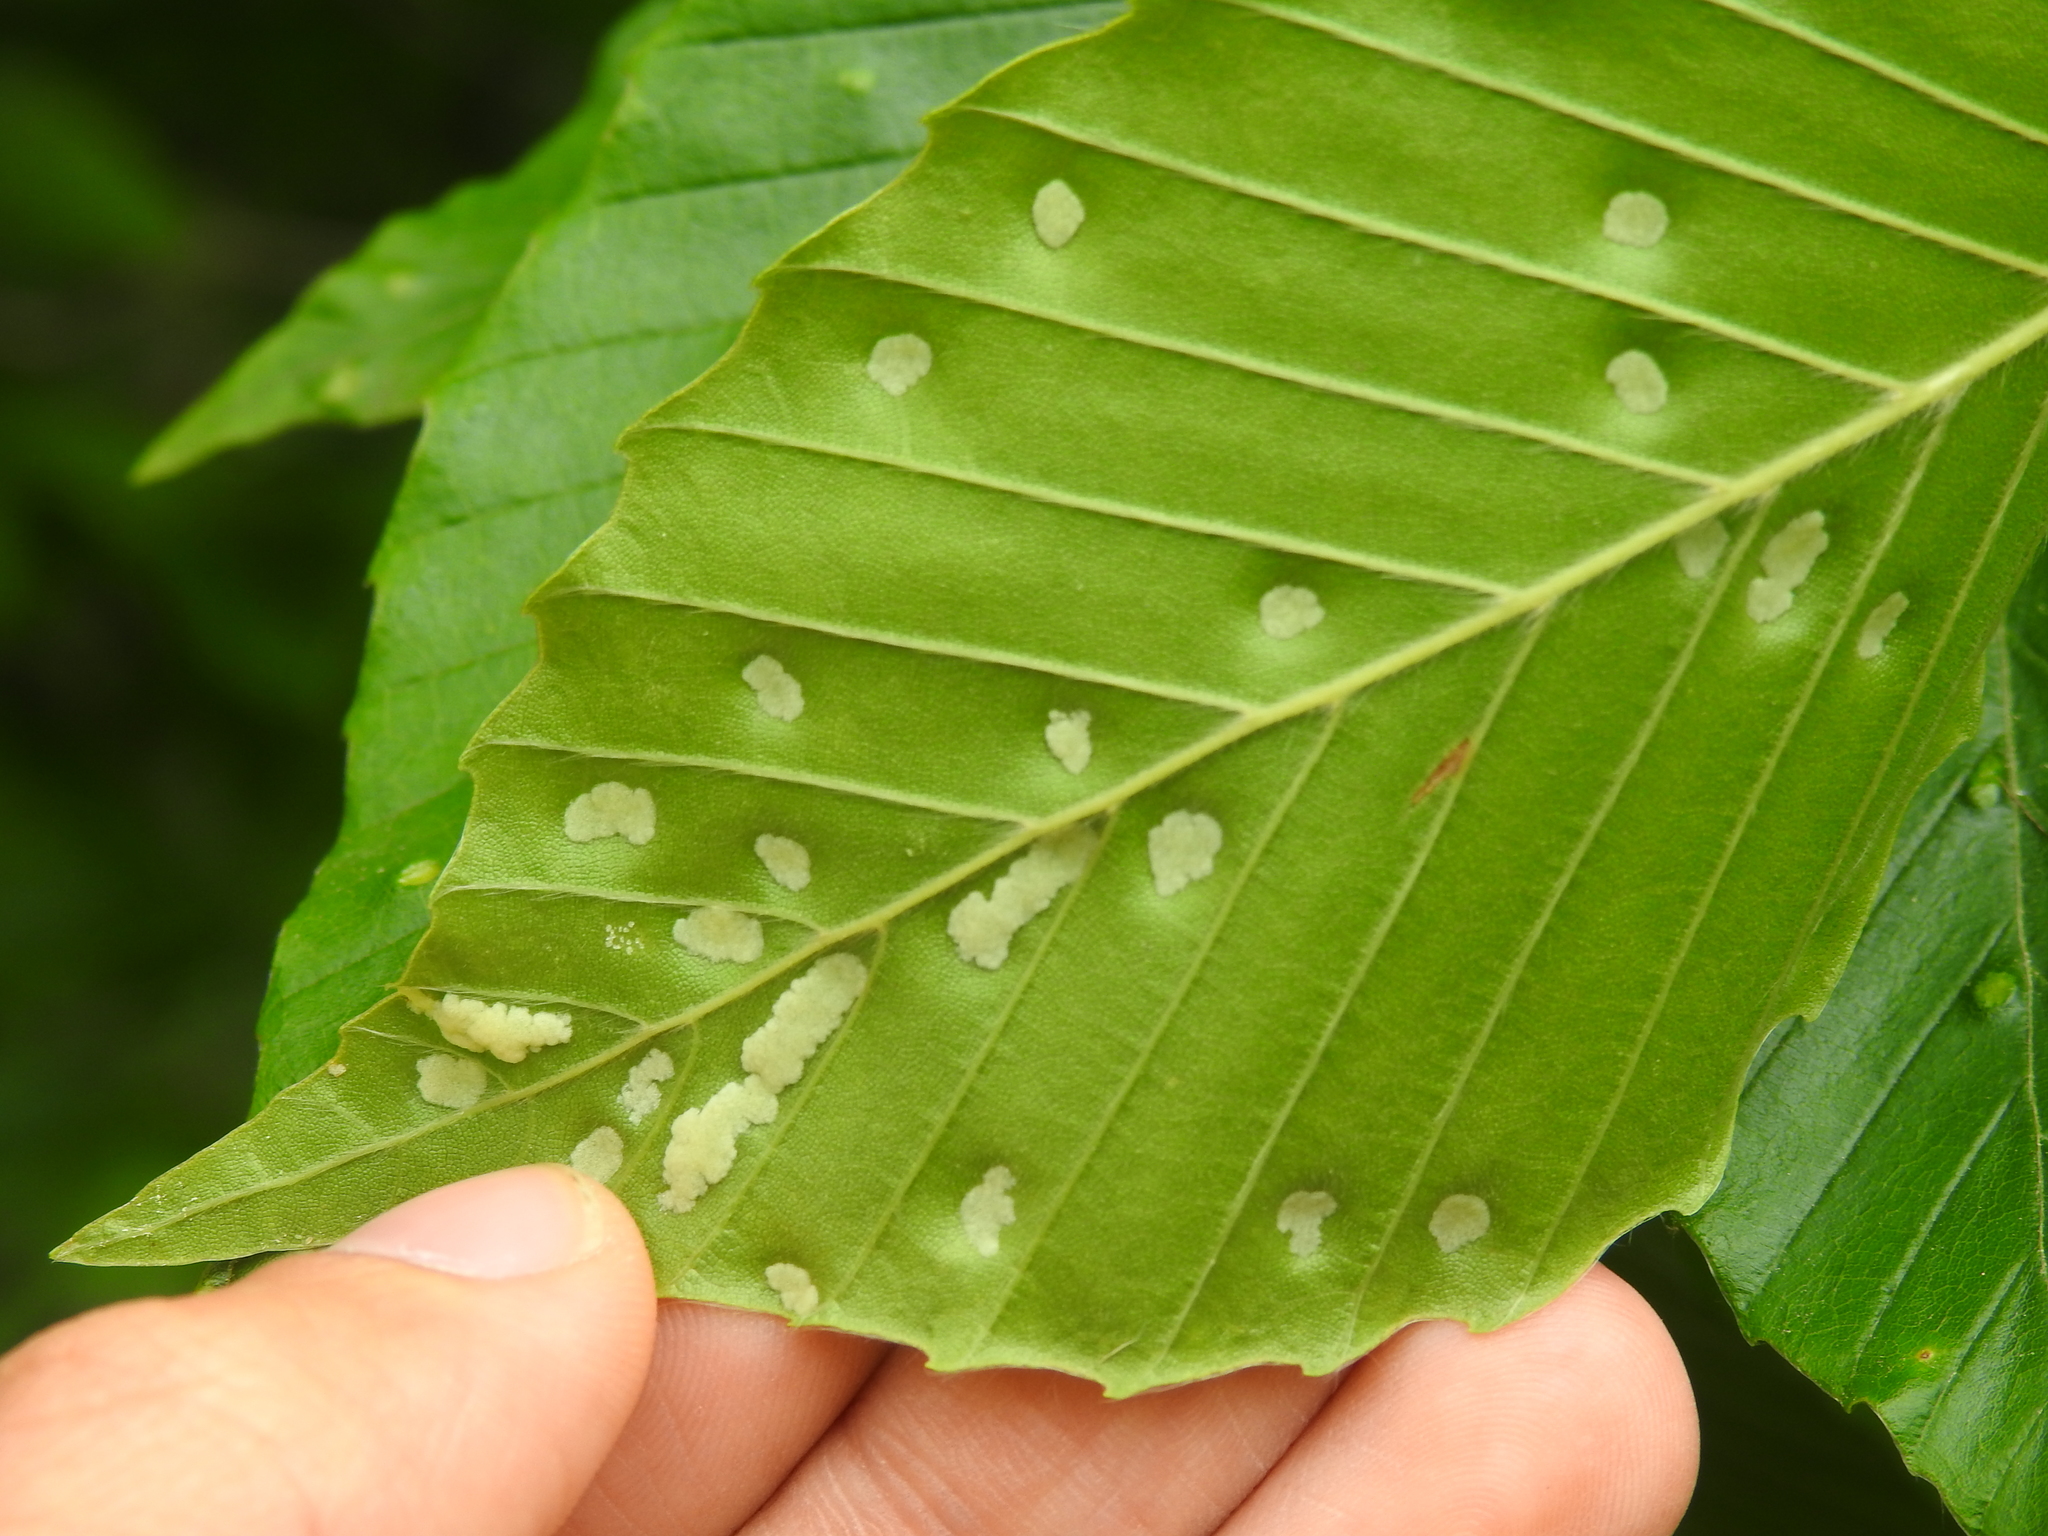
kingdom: Animalia
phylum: Arthropoda
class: Arachnida
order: Trombidiformes
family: Eriophyidae
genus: Acalitus
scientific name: Acalitus
